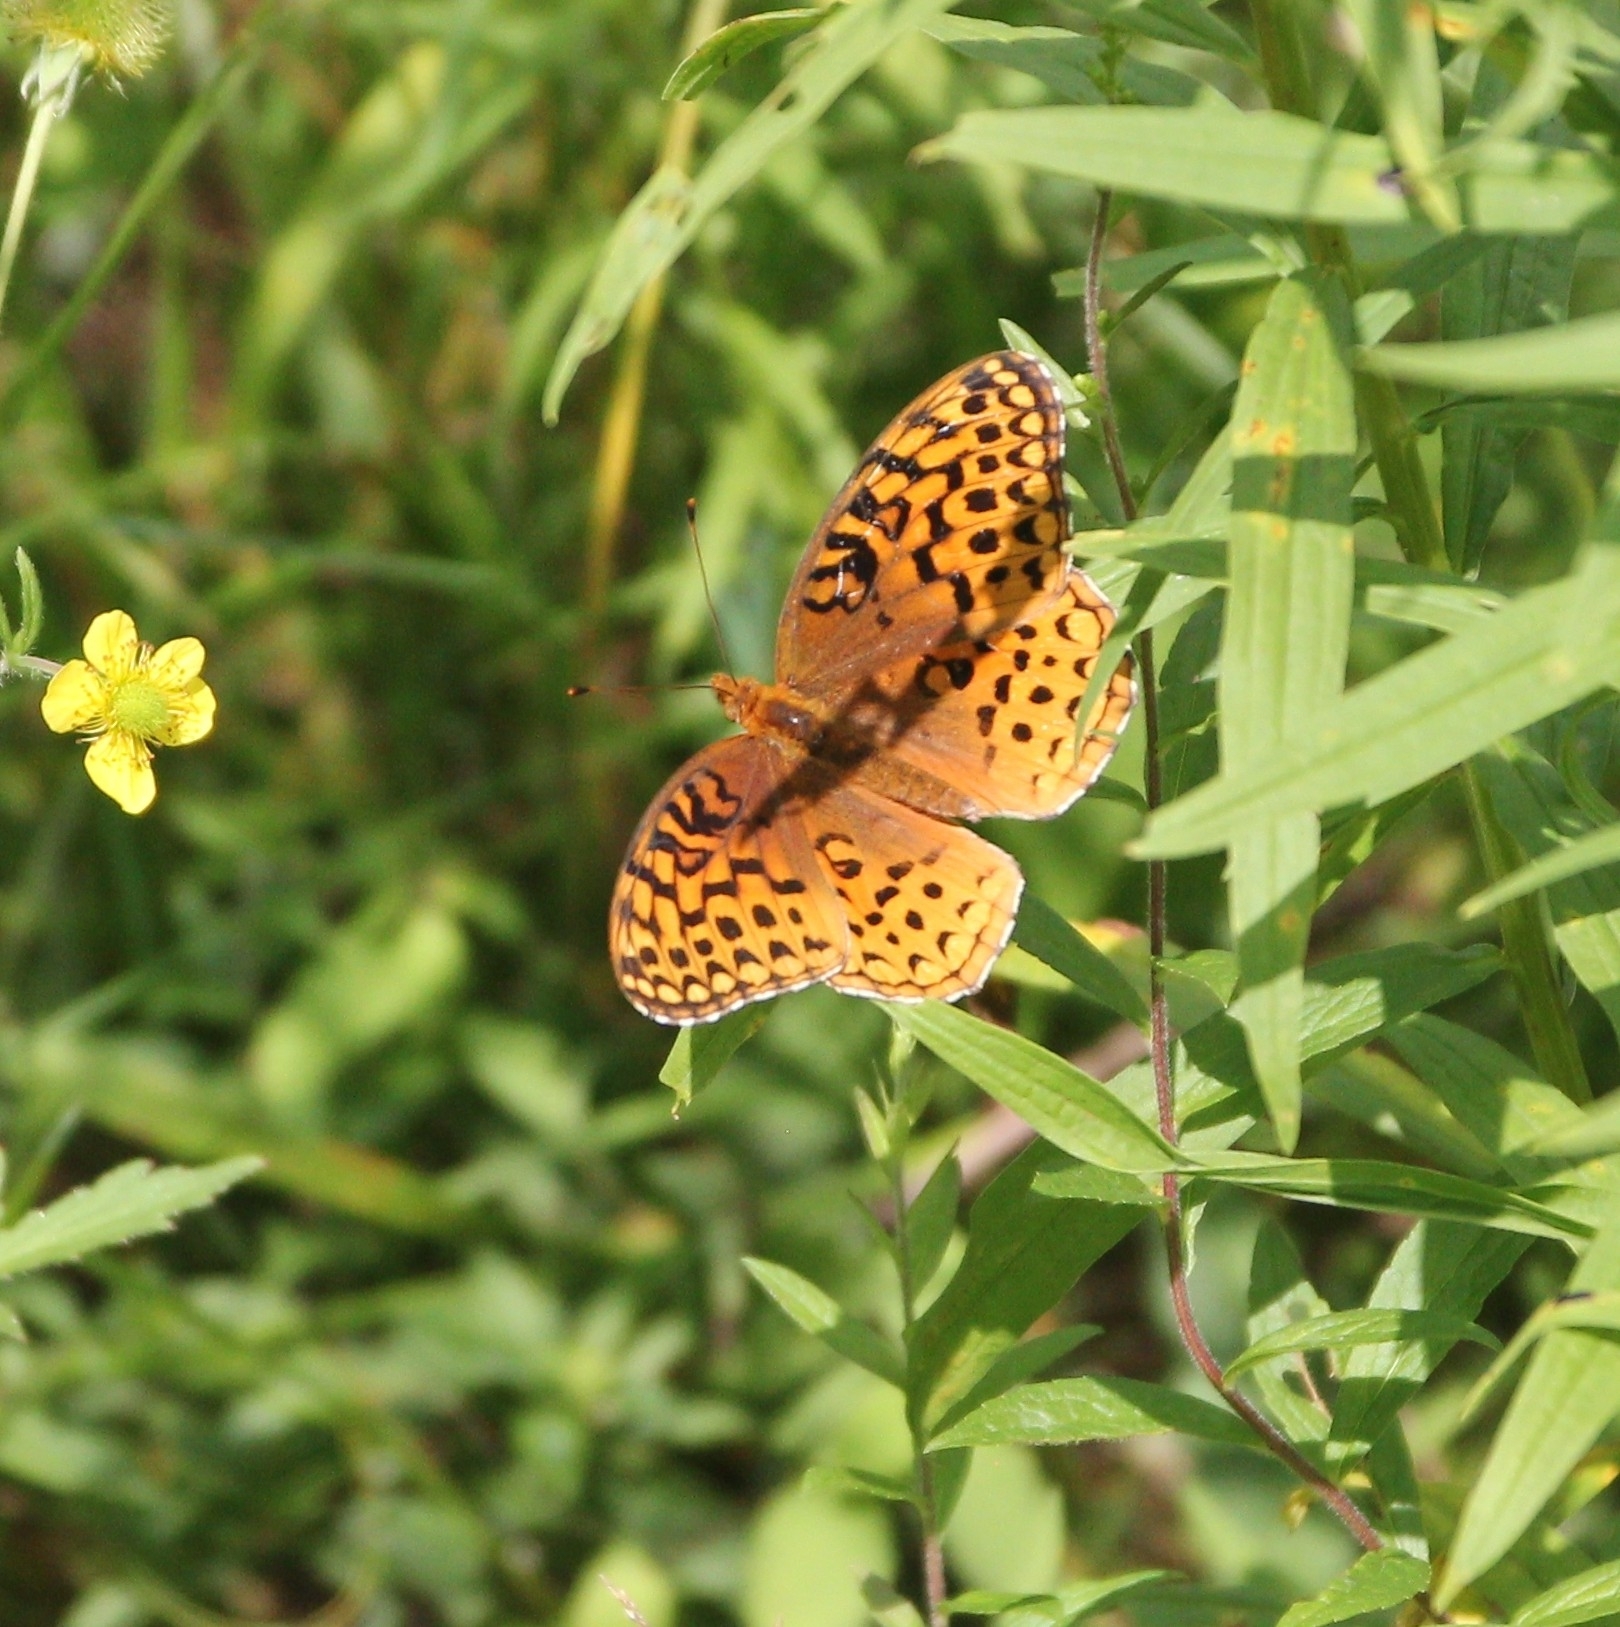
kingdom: Animalia
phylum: Arthropoda
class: Insecta
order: Lepidoptera
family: Nymphalidae
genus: Speyeria
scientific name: Speyeria aphrodite
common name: Aphrodite friitllary
